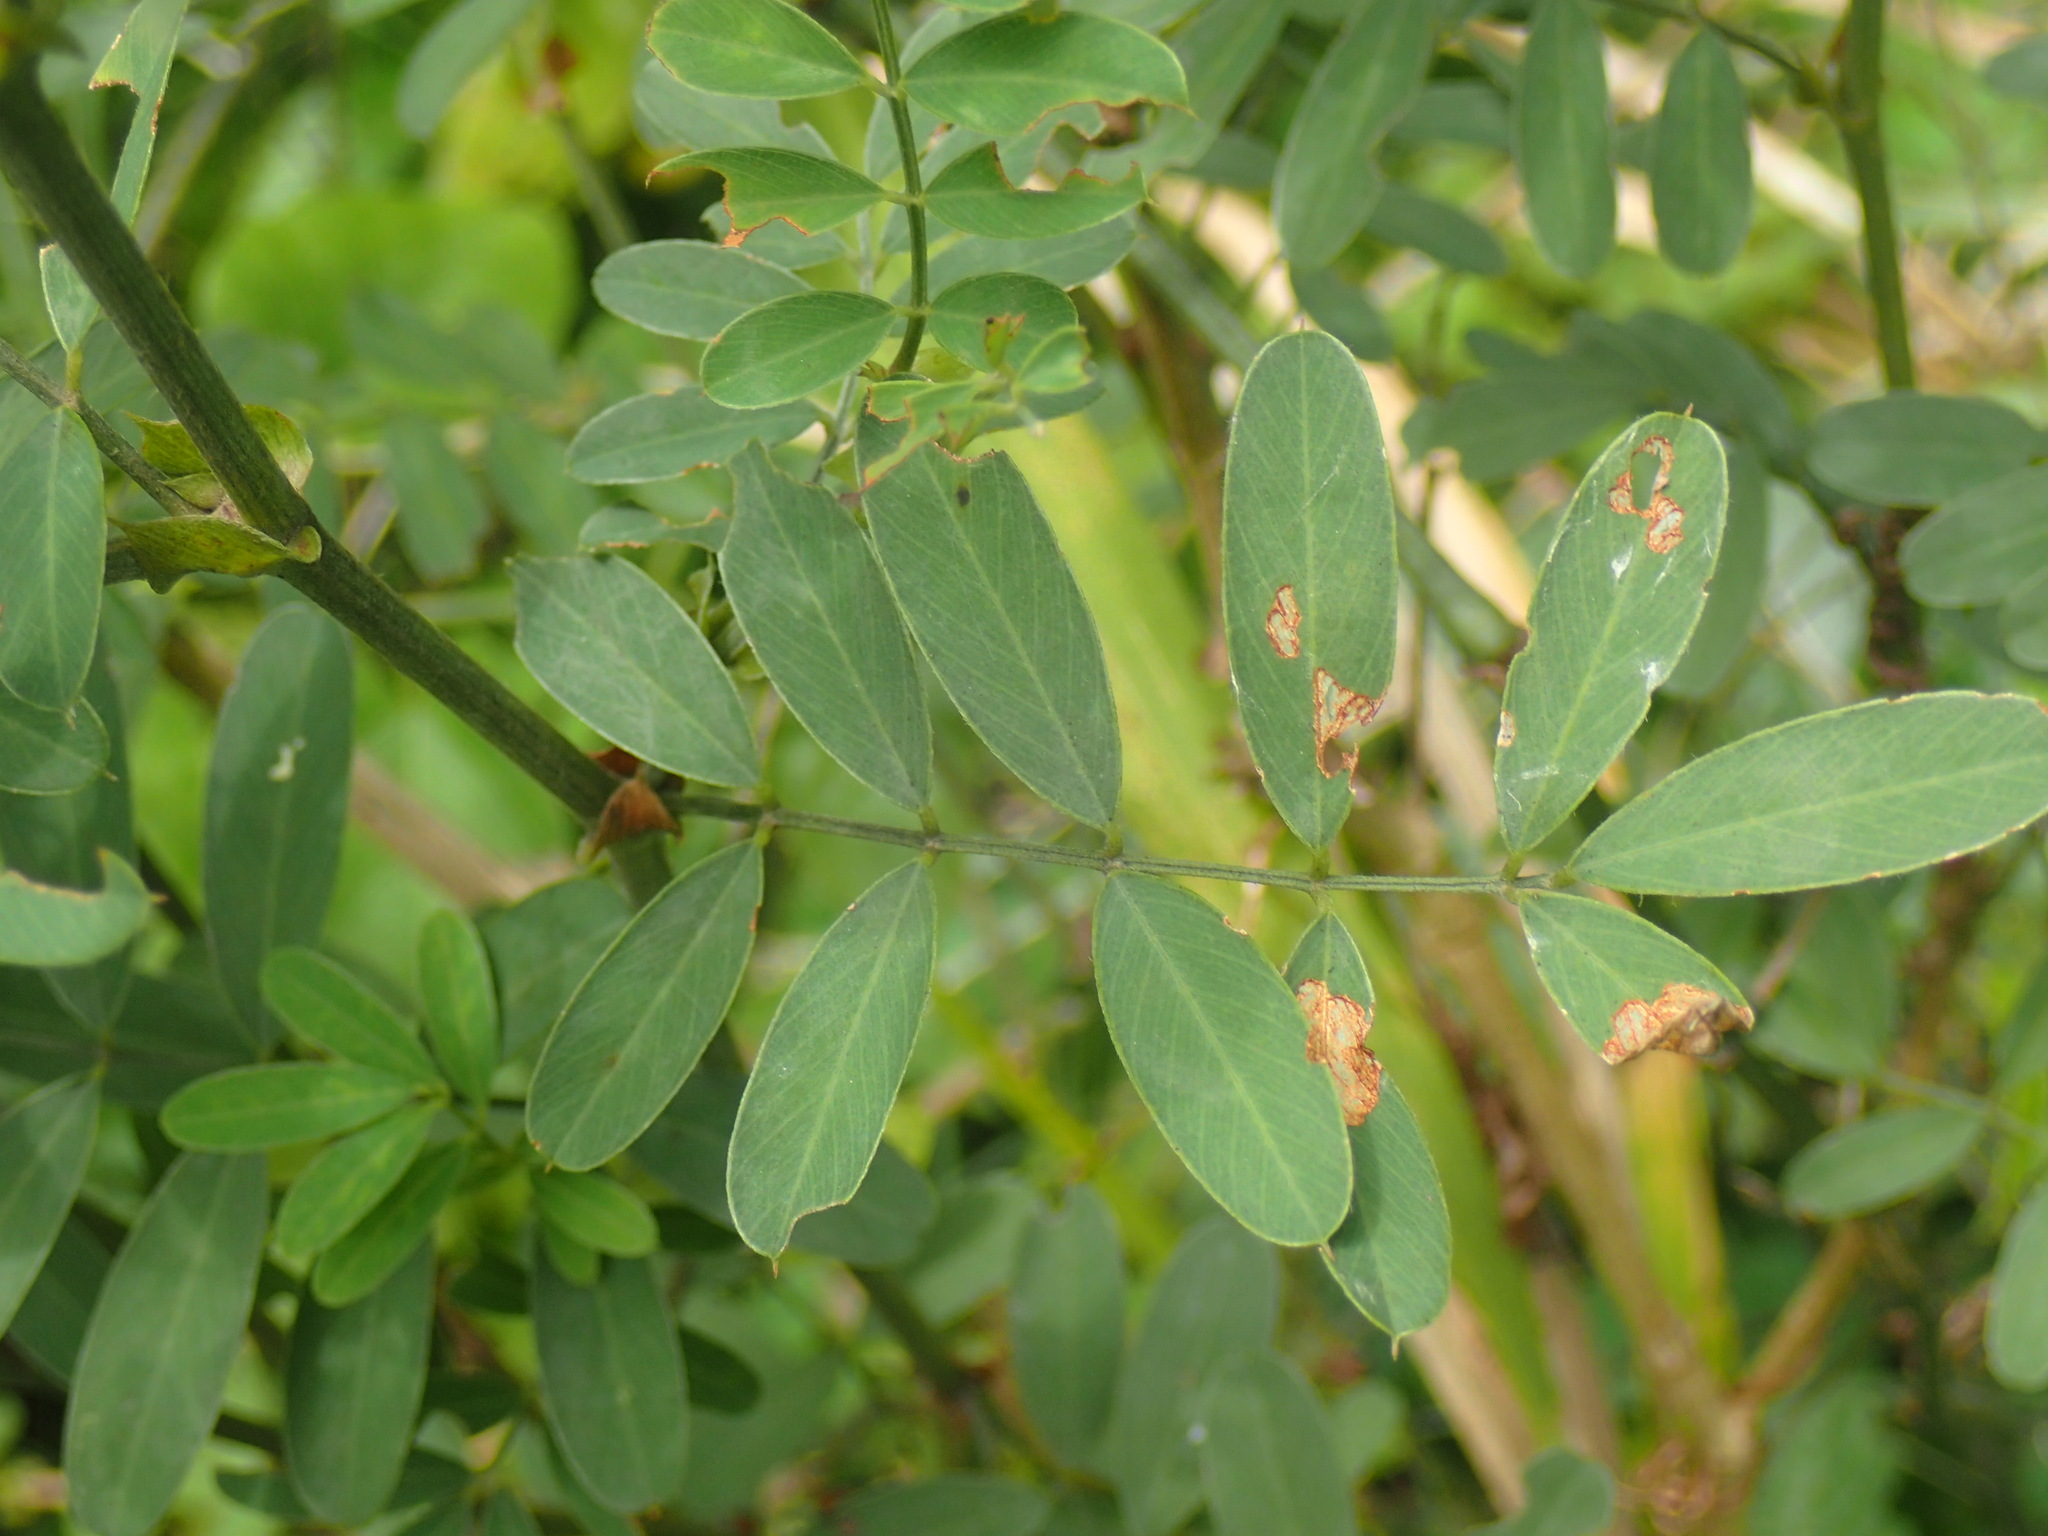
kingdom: Plantae
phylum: Tracheophyta
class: Magnoliopsida
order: Fabales
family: Fabaceae
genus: Tephrosia
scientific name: Tephrosia shiluwanensis
